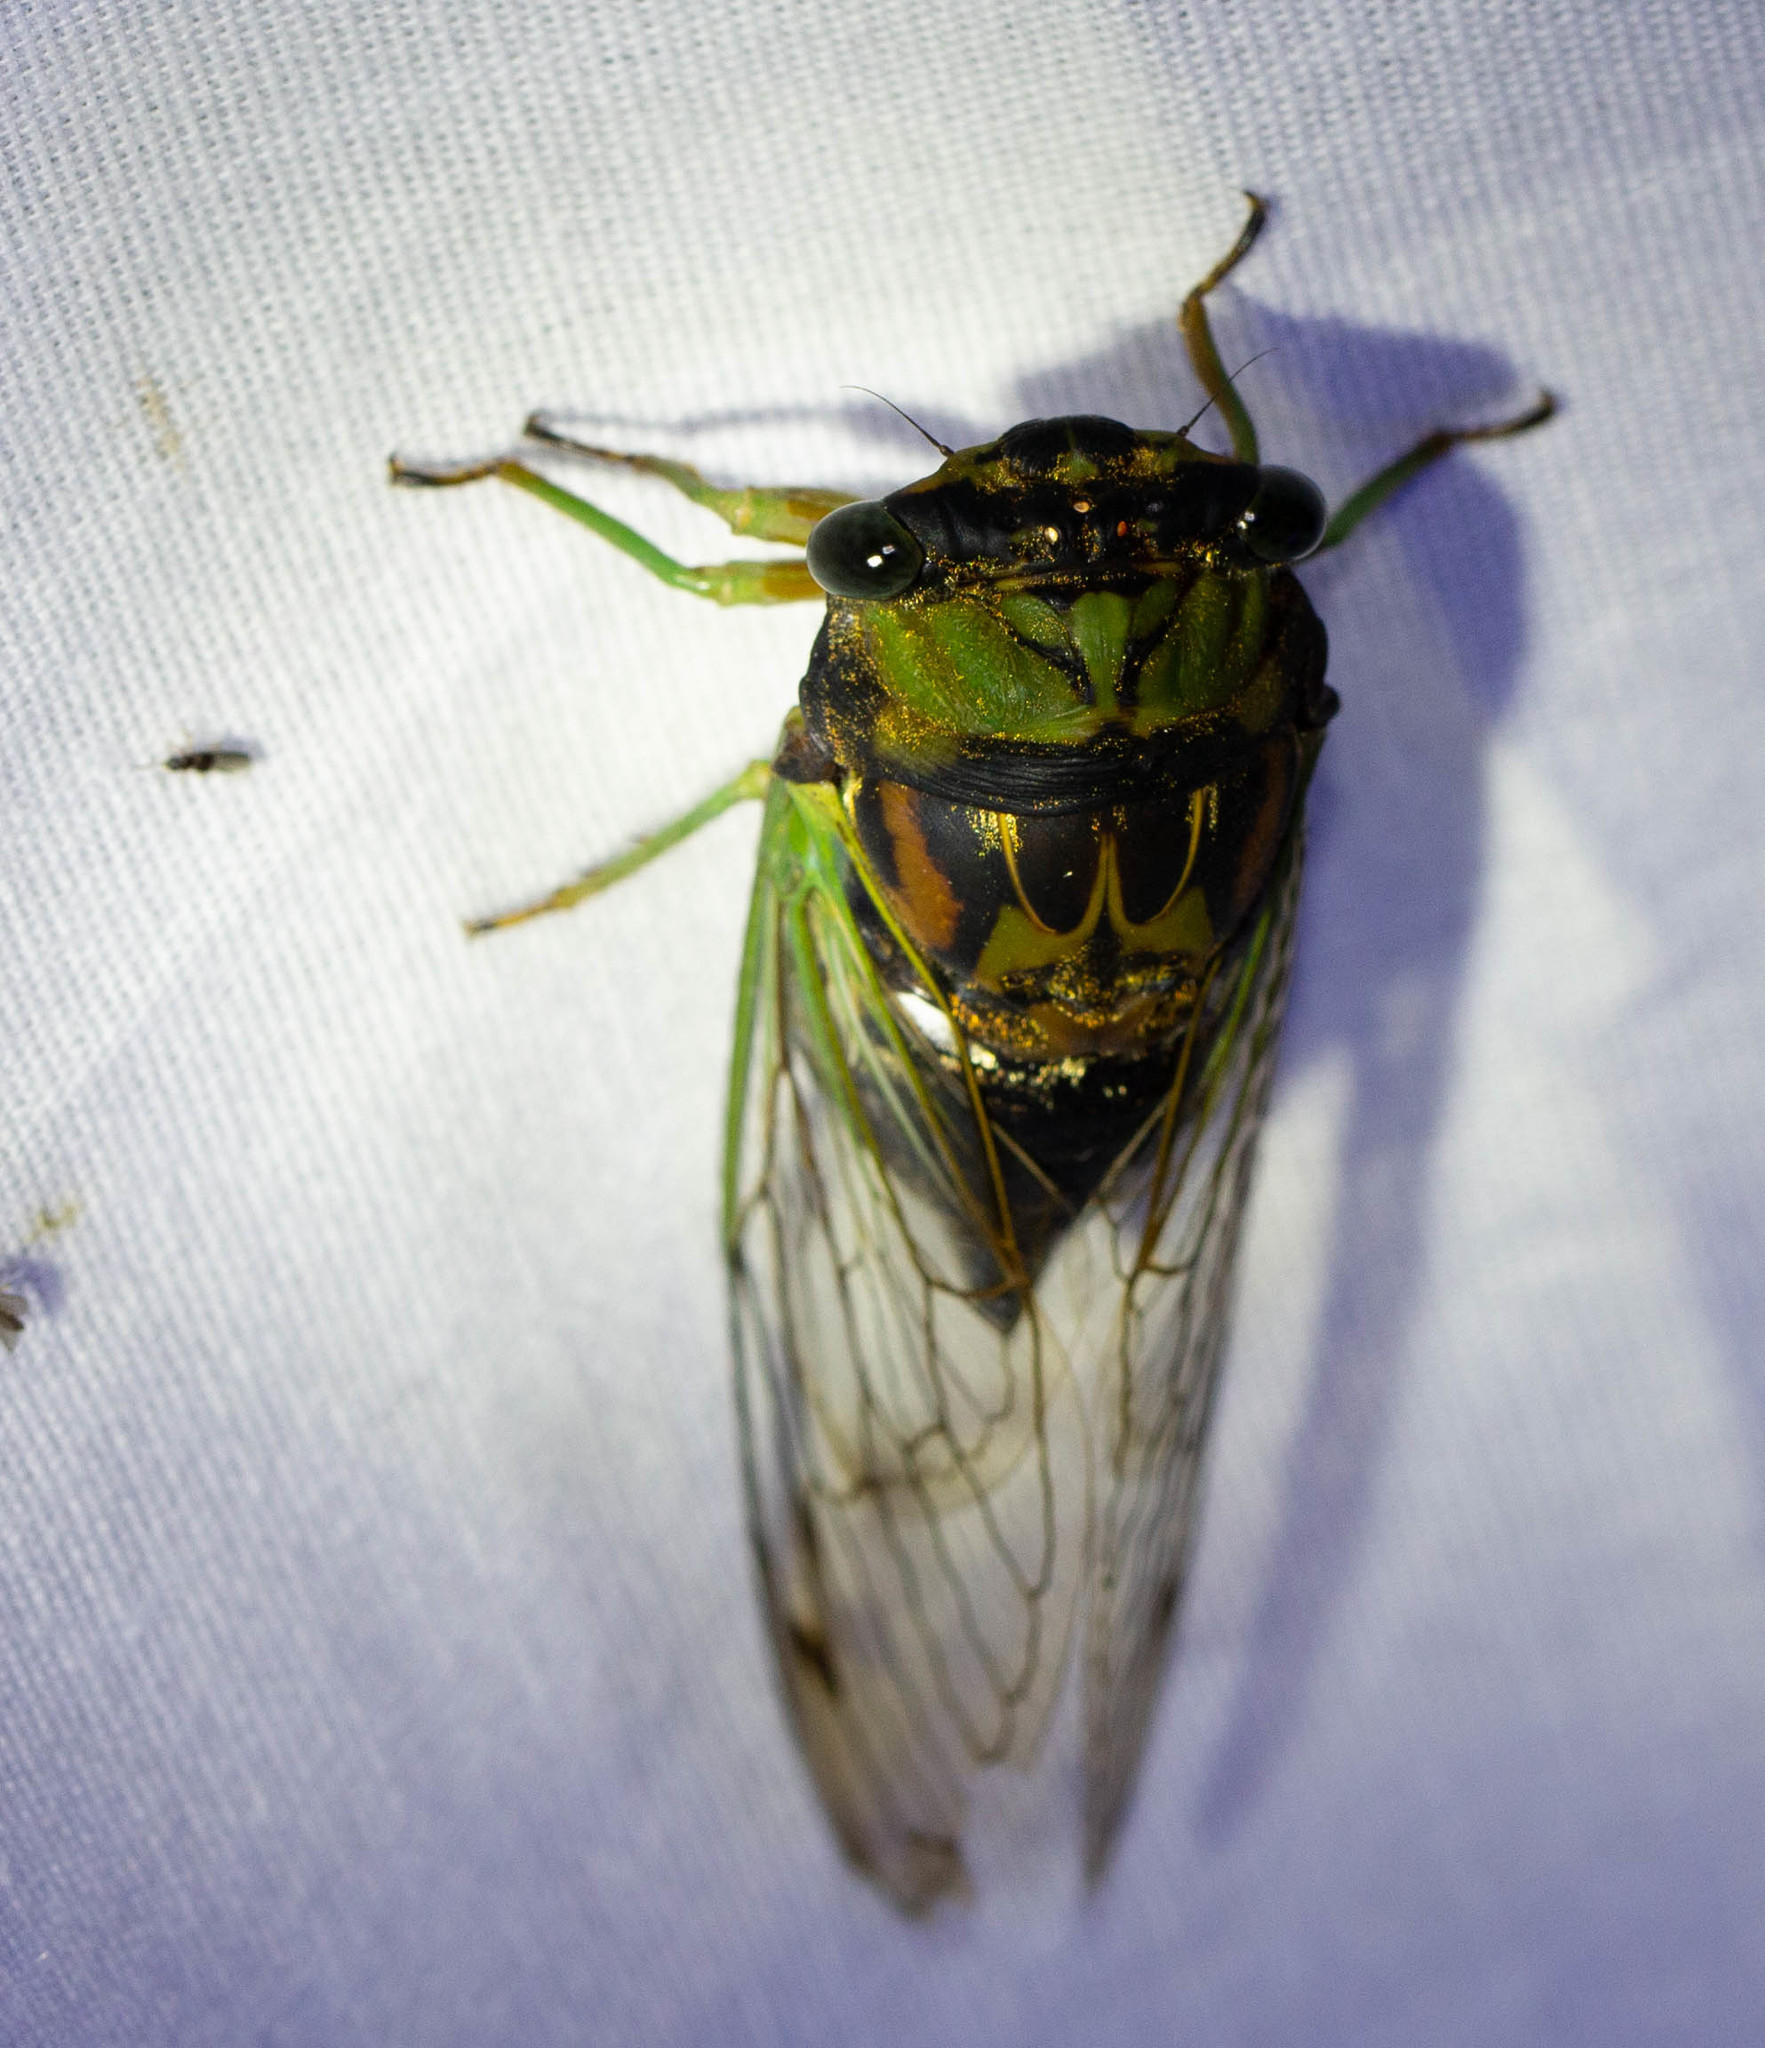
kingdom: Animalia
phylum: Arthropoda
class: Insecta
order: Hemiptera
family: Cicadidae
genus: Neotibicen
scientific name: Neotibicen tibicen
